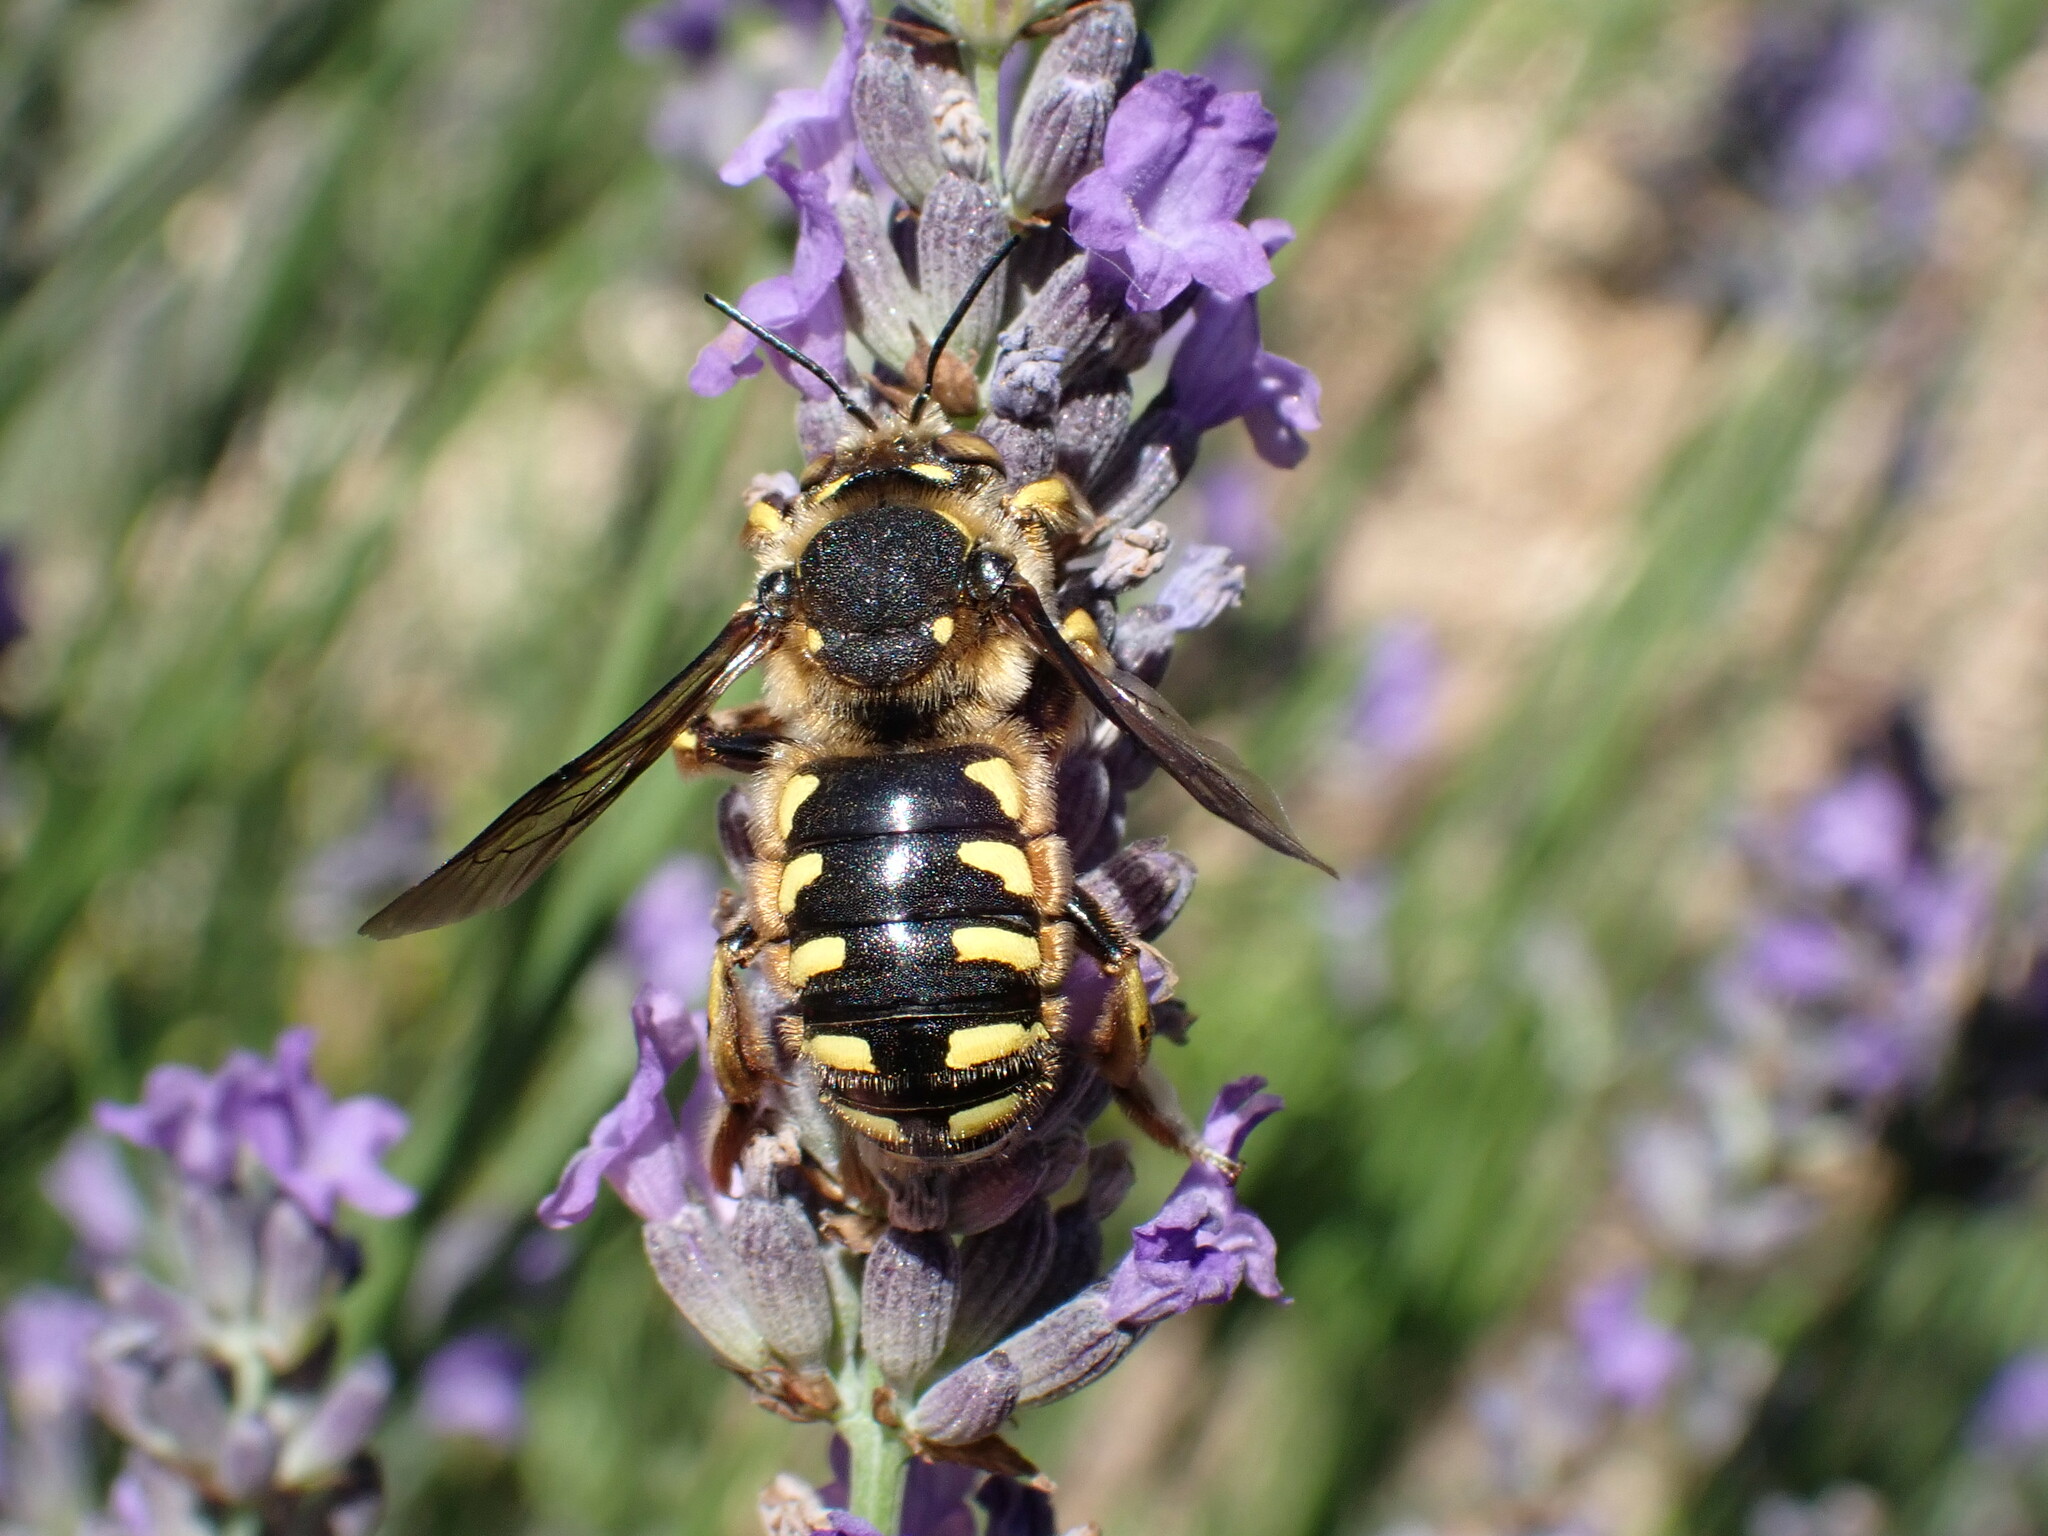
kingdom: Animalia
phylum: Arthropoda
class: Insecta
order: Hymenoptera
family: Megachilidae
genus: Anthidium
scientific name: Anthidium florentinum
